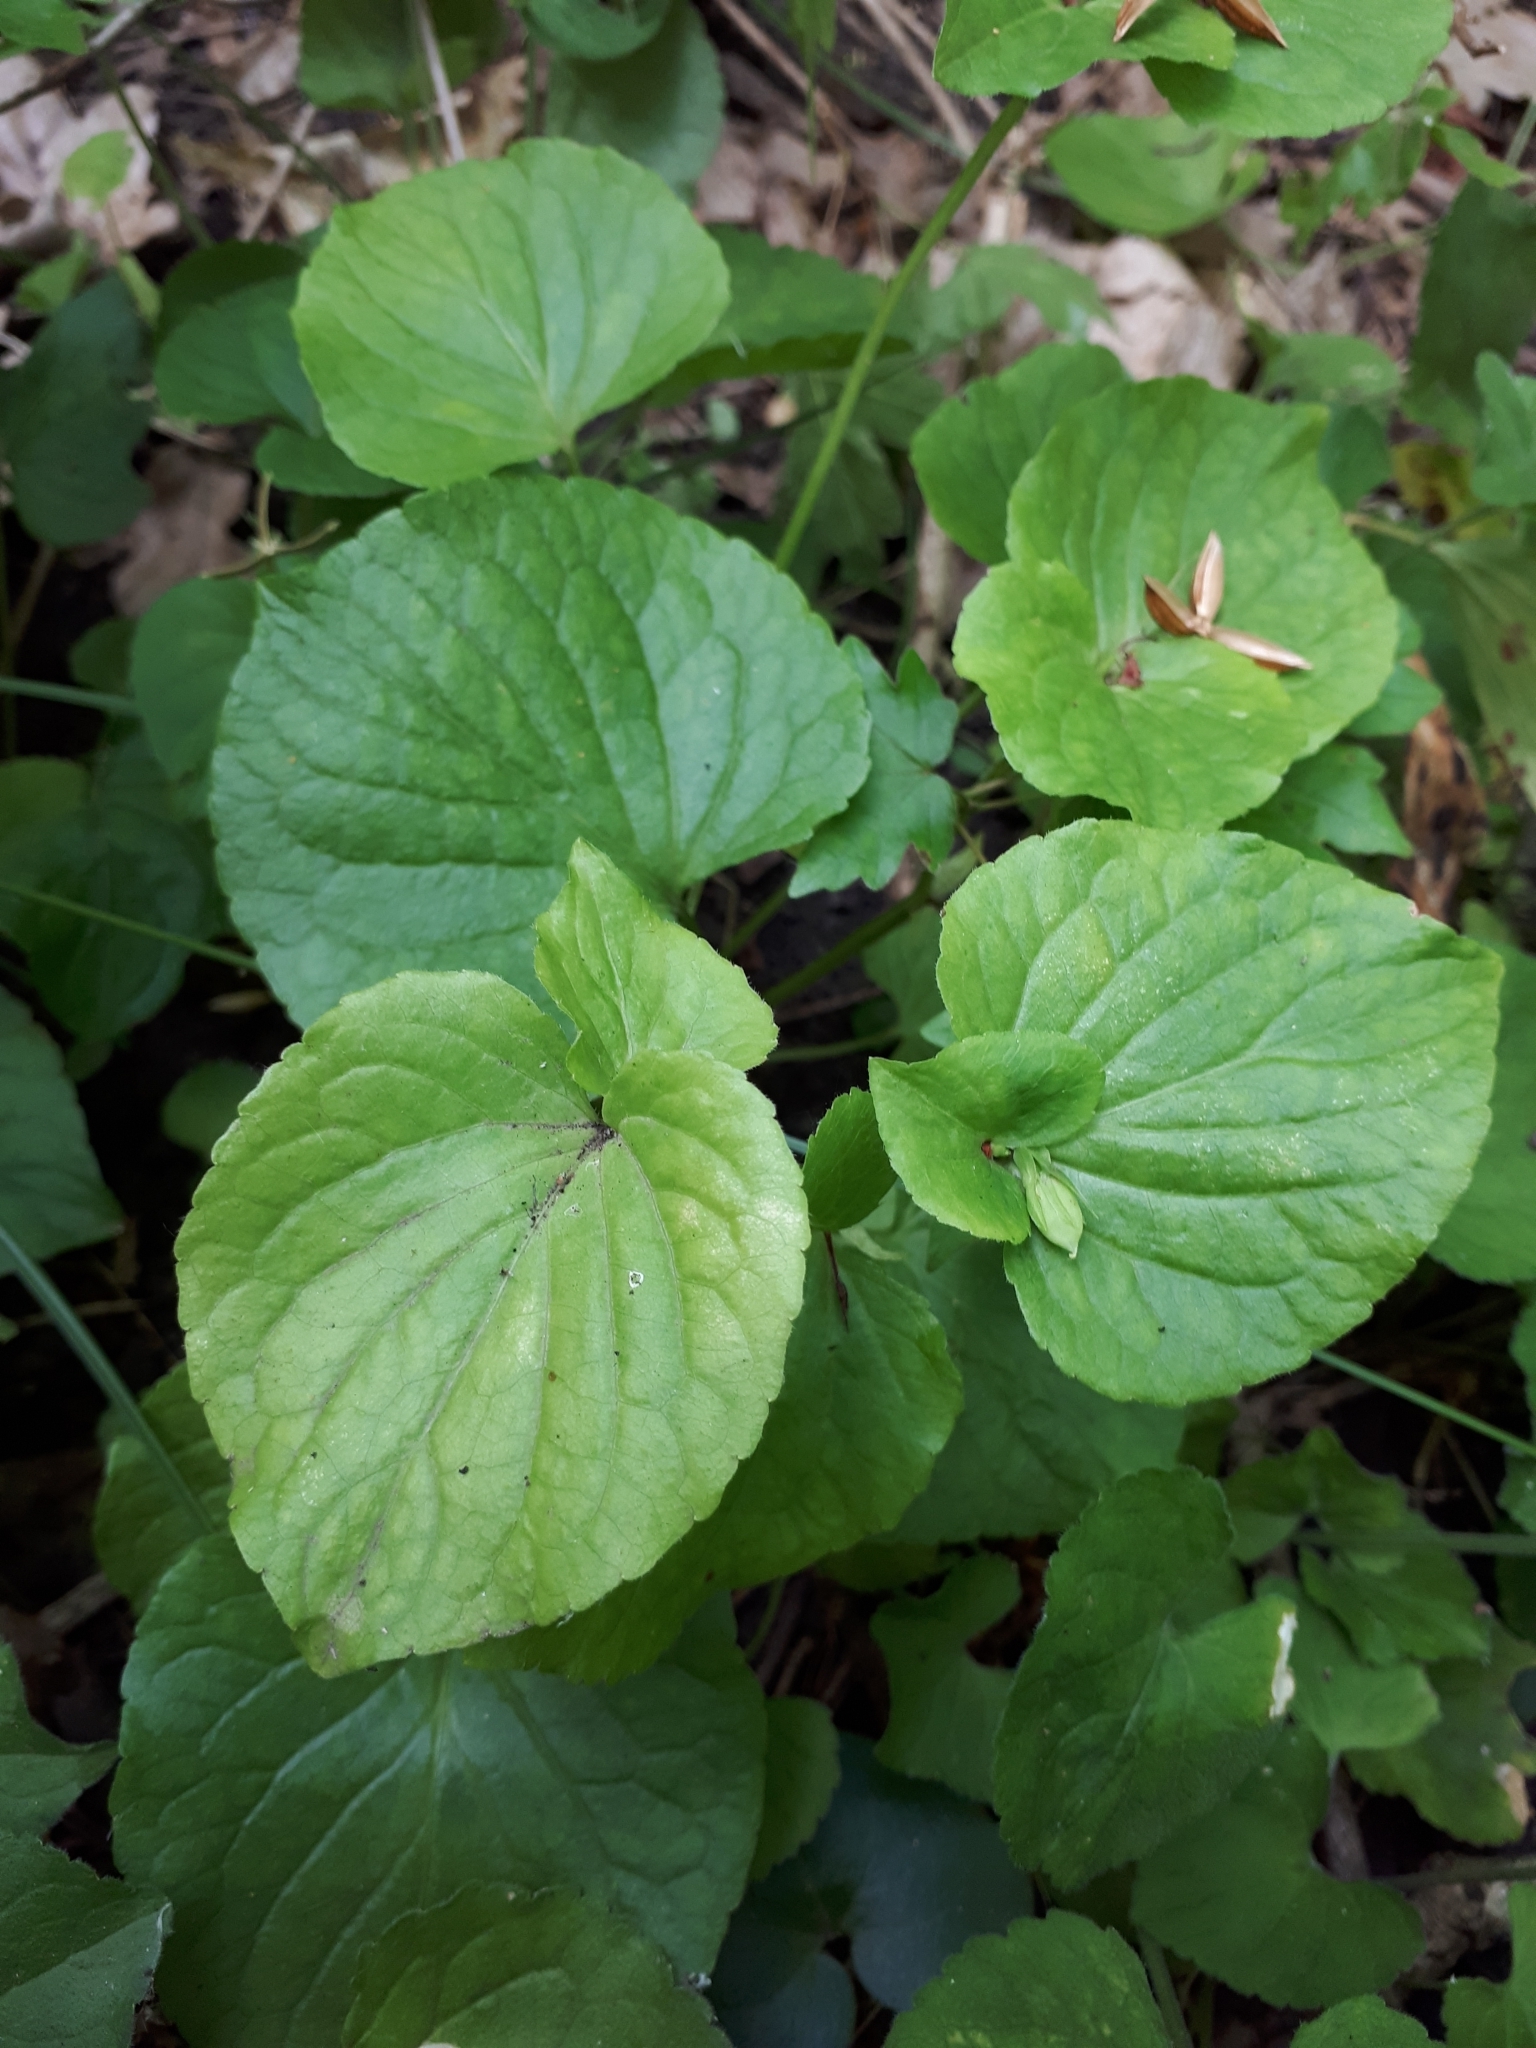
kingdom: Plantae
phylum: Tracheophyta
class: Magnoliopsida
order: Malpighiales
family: Violaceae
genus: Viola
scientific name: Viola mirabilis
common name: Wonder violet
